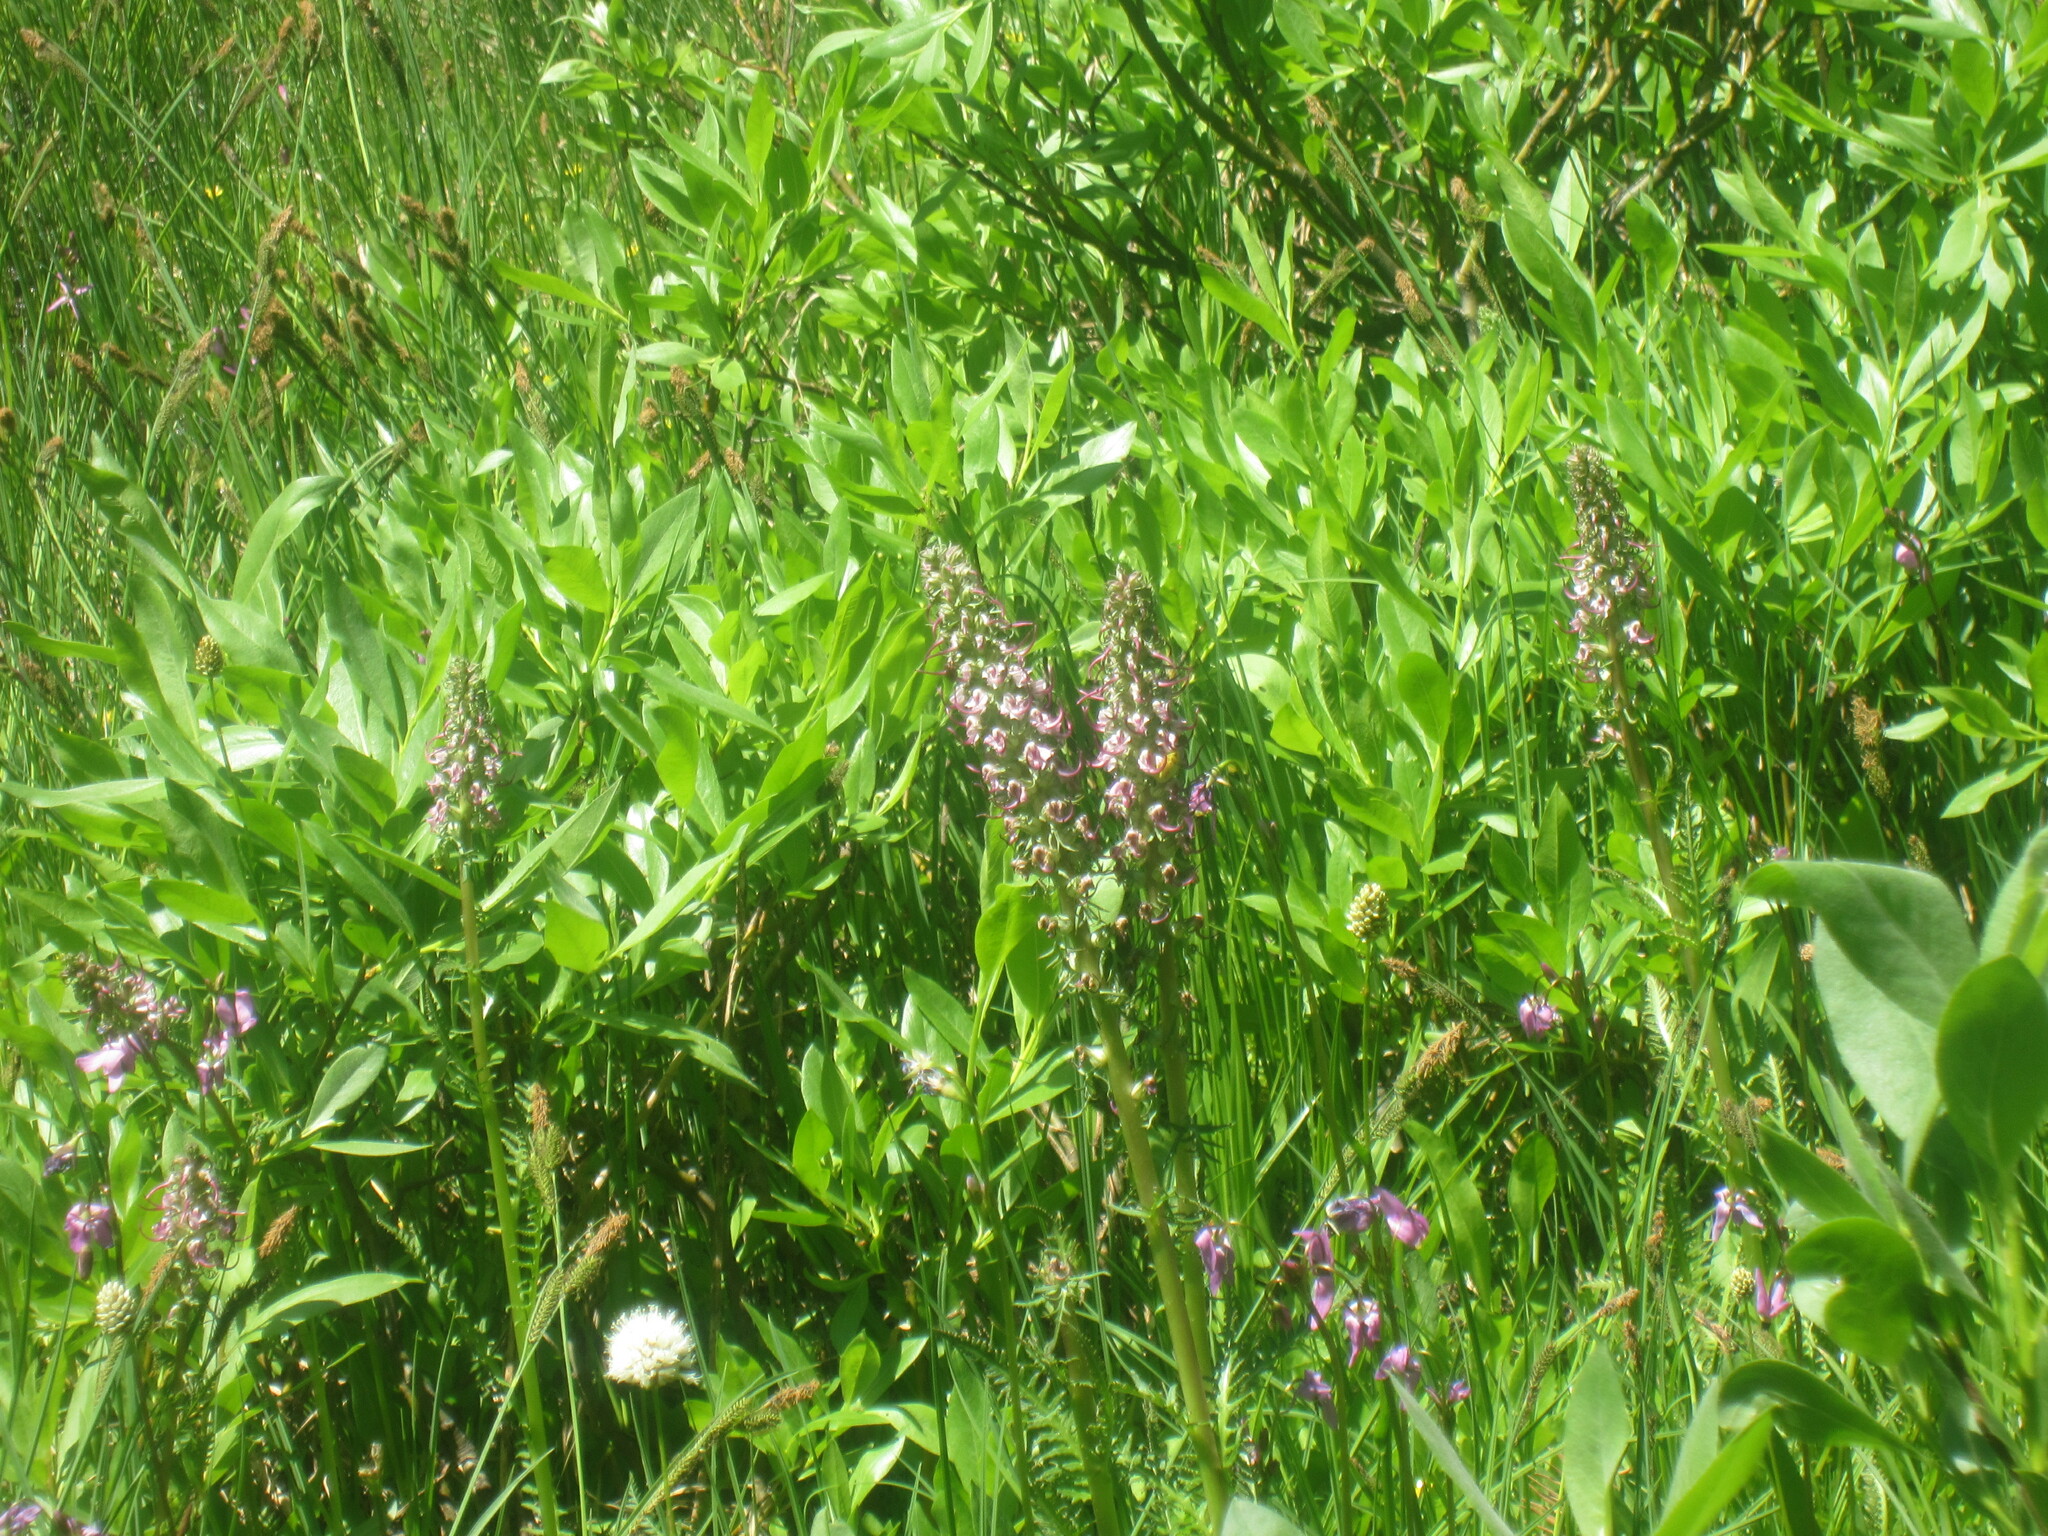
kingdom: Plantae
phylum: Tracheophyta
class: Magnoliopsida
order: Lamiales
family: Orobanchaceae
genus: Pedicularis
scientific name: Pedicularis groenlandica
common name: Elephant's-head
